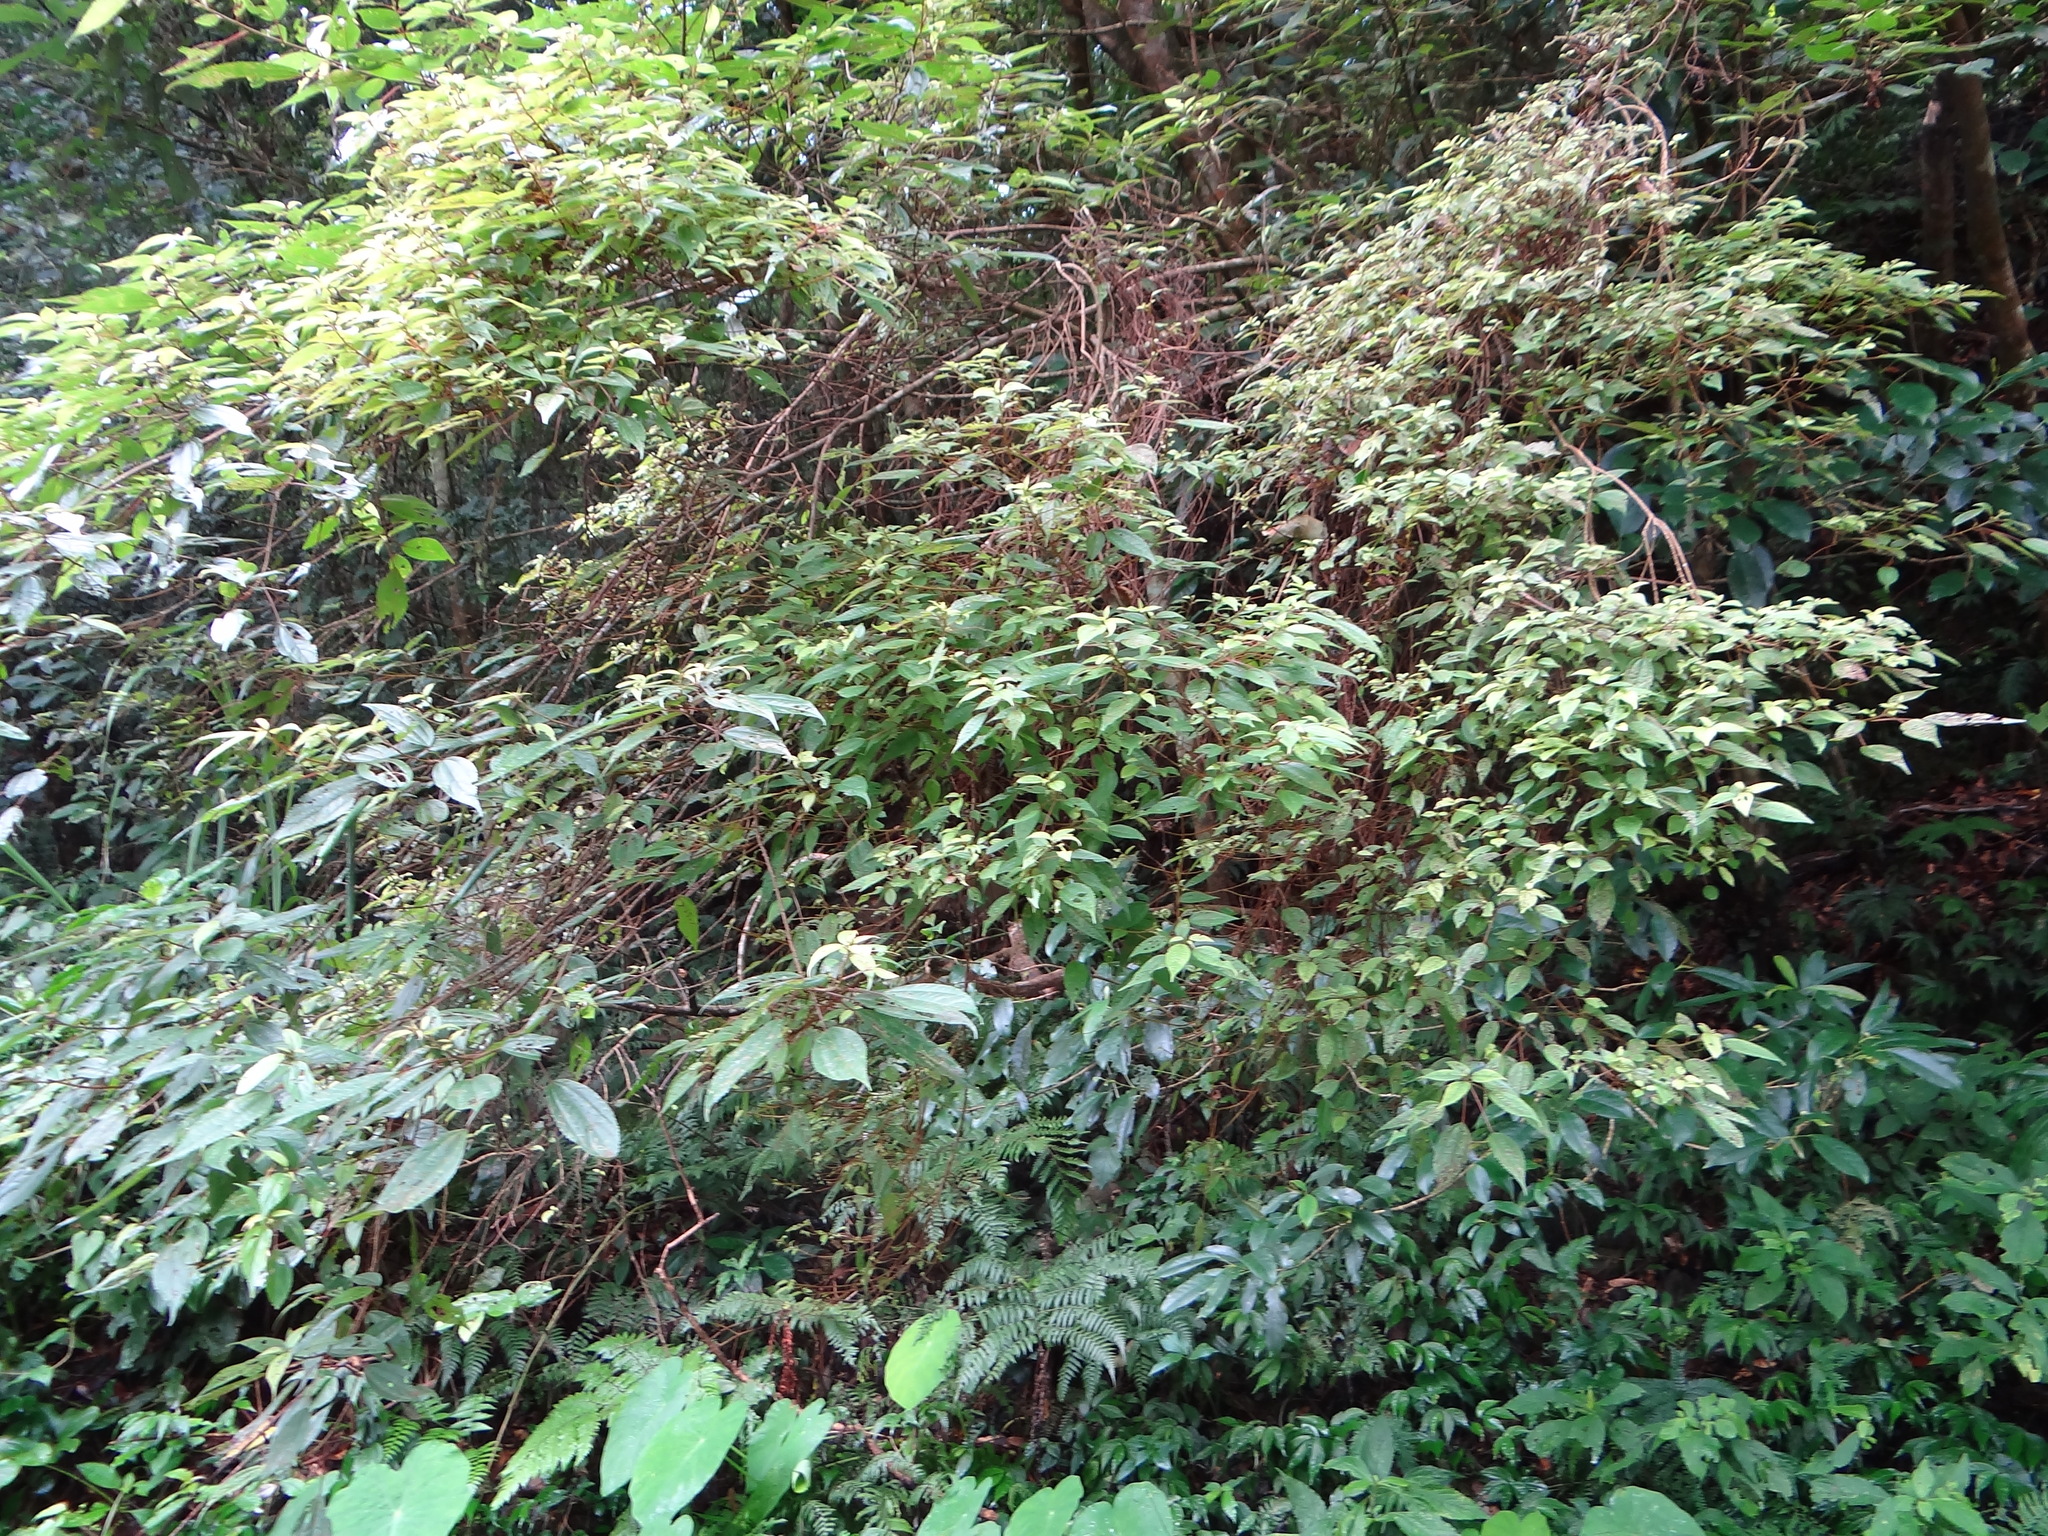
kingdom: Plantae
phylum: Tracheophyta
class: Magnoliopsida
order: Rosales
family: Urticaceae
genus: Oreocnide
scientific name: Oreocnide pedunculata
